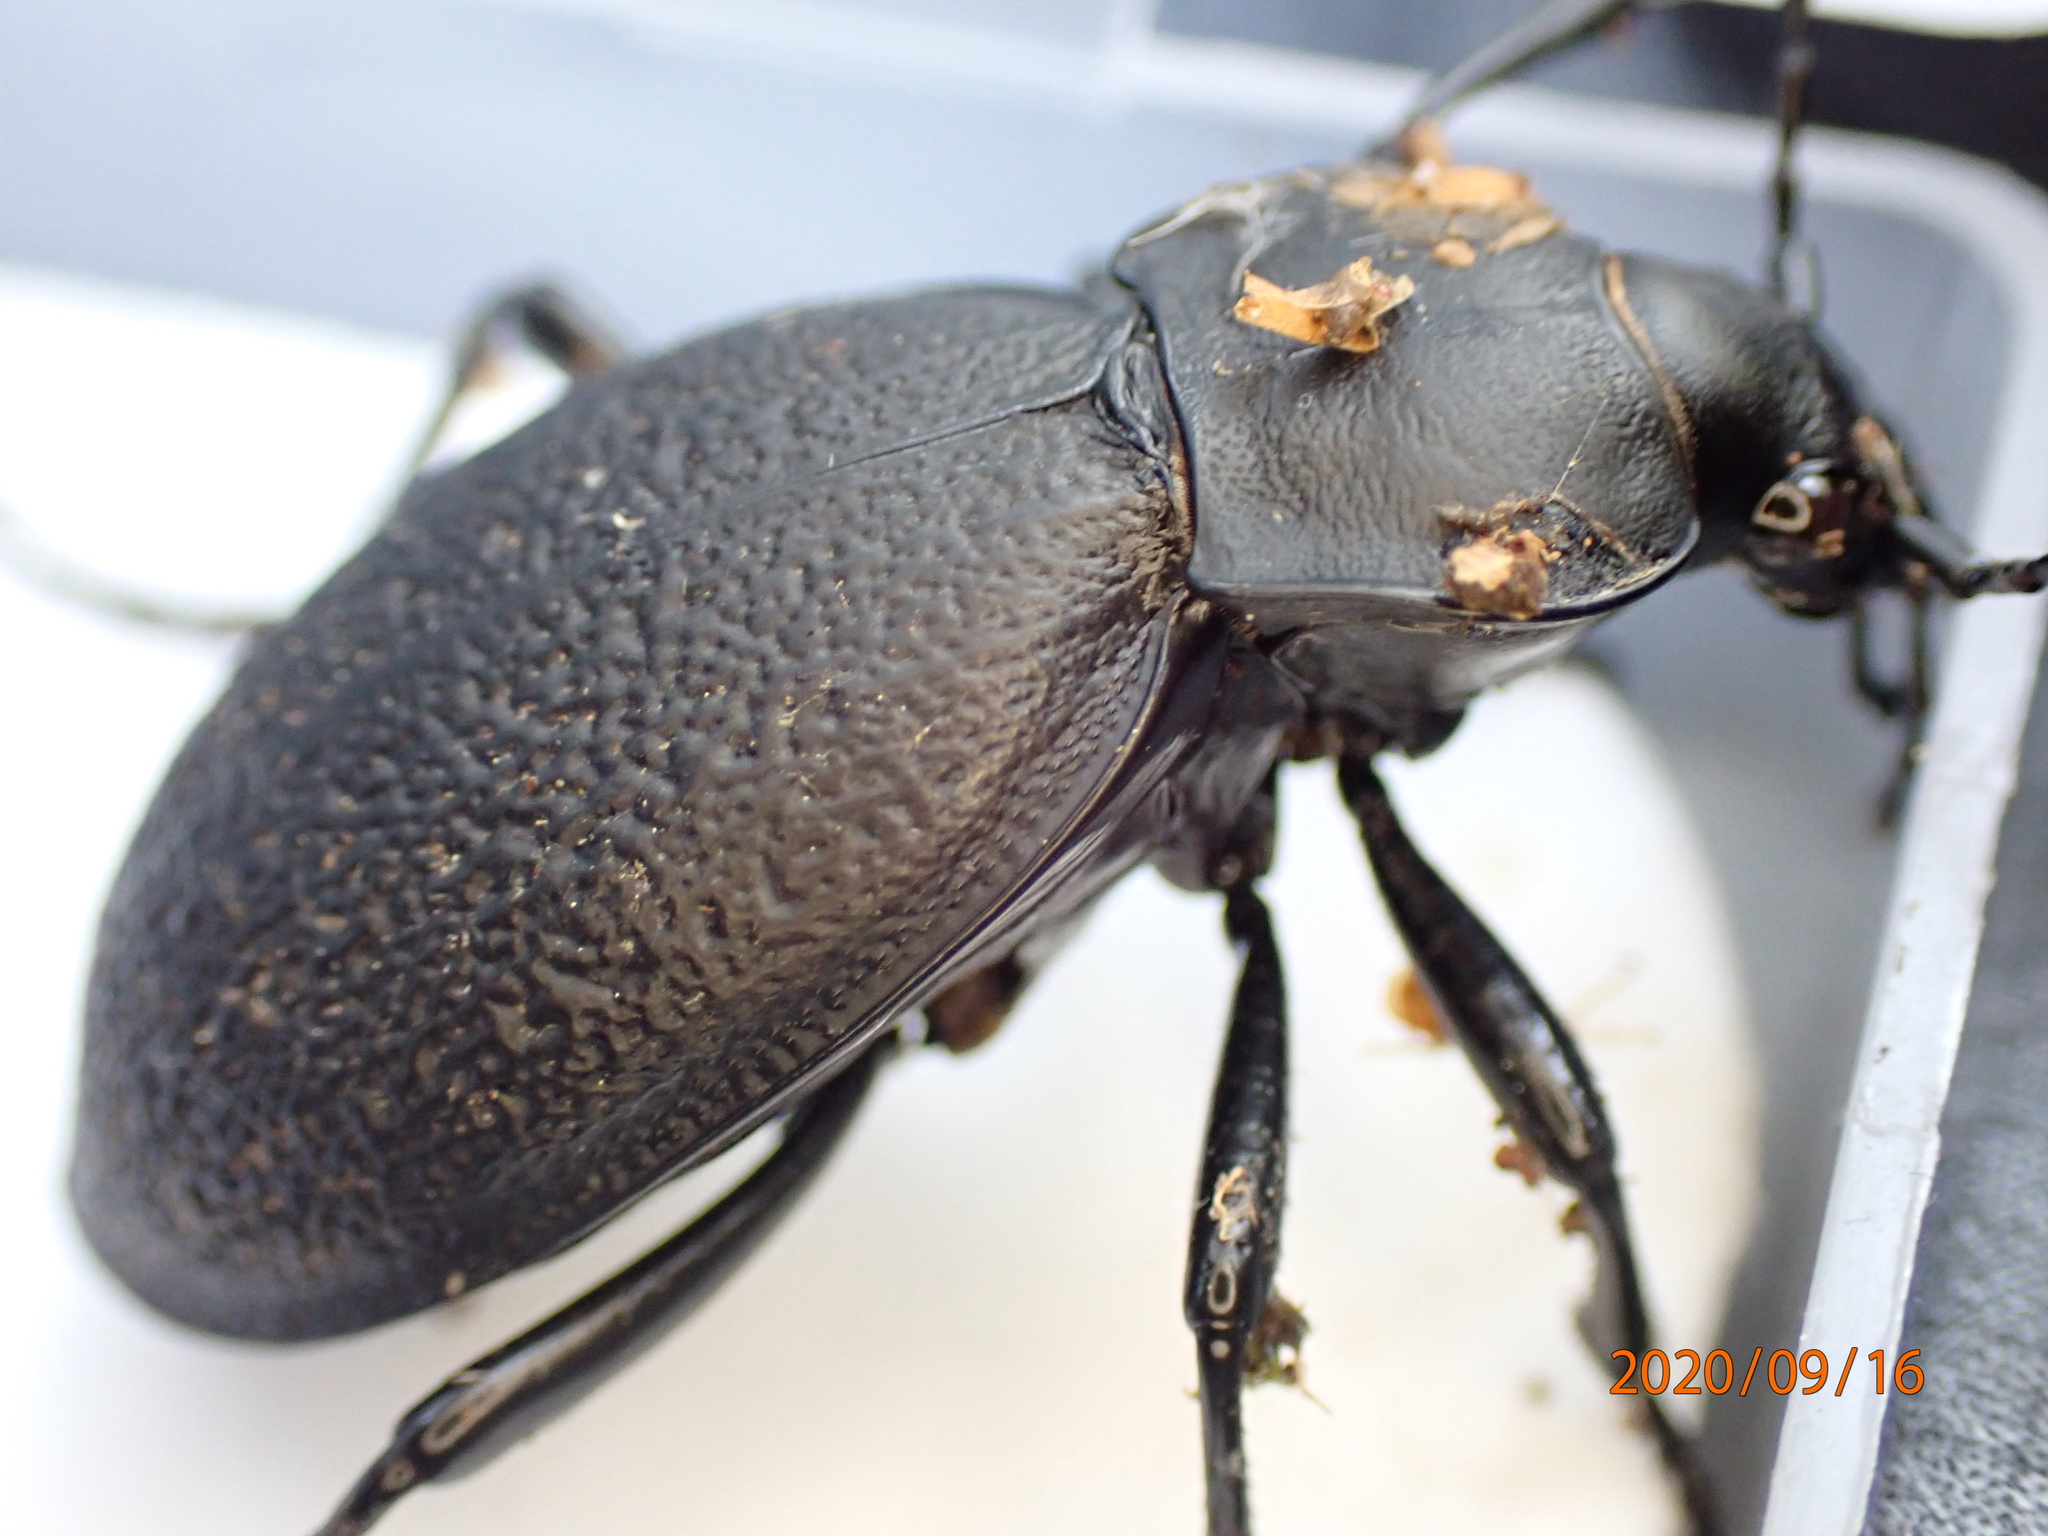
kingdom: Animalia
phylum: Arthropoda
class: Insecta
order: Coleoptera
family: Carabidae
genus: Carabus
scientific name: Carabus coriaceus
